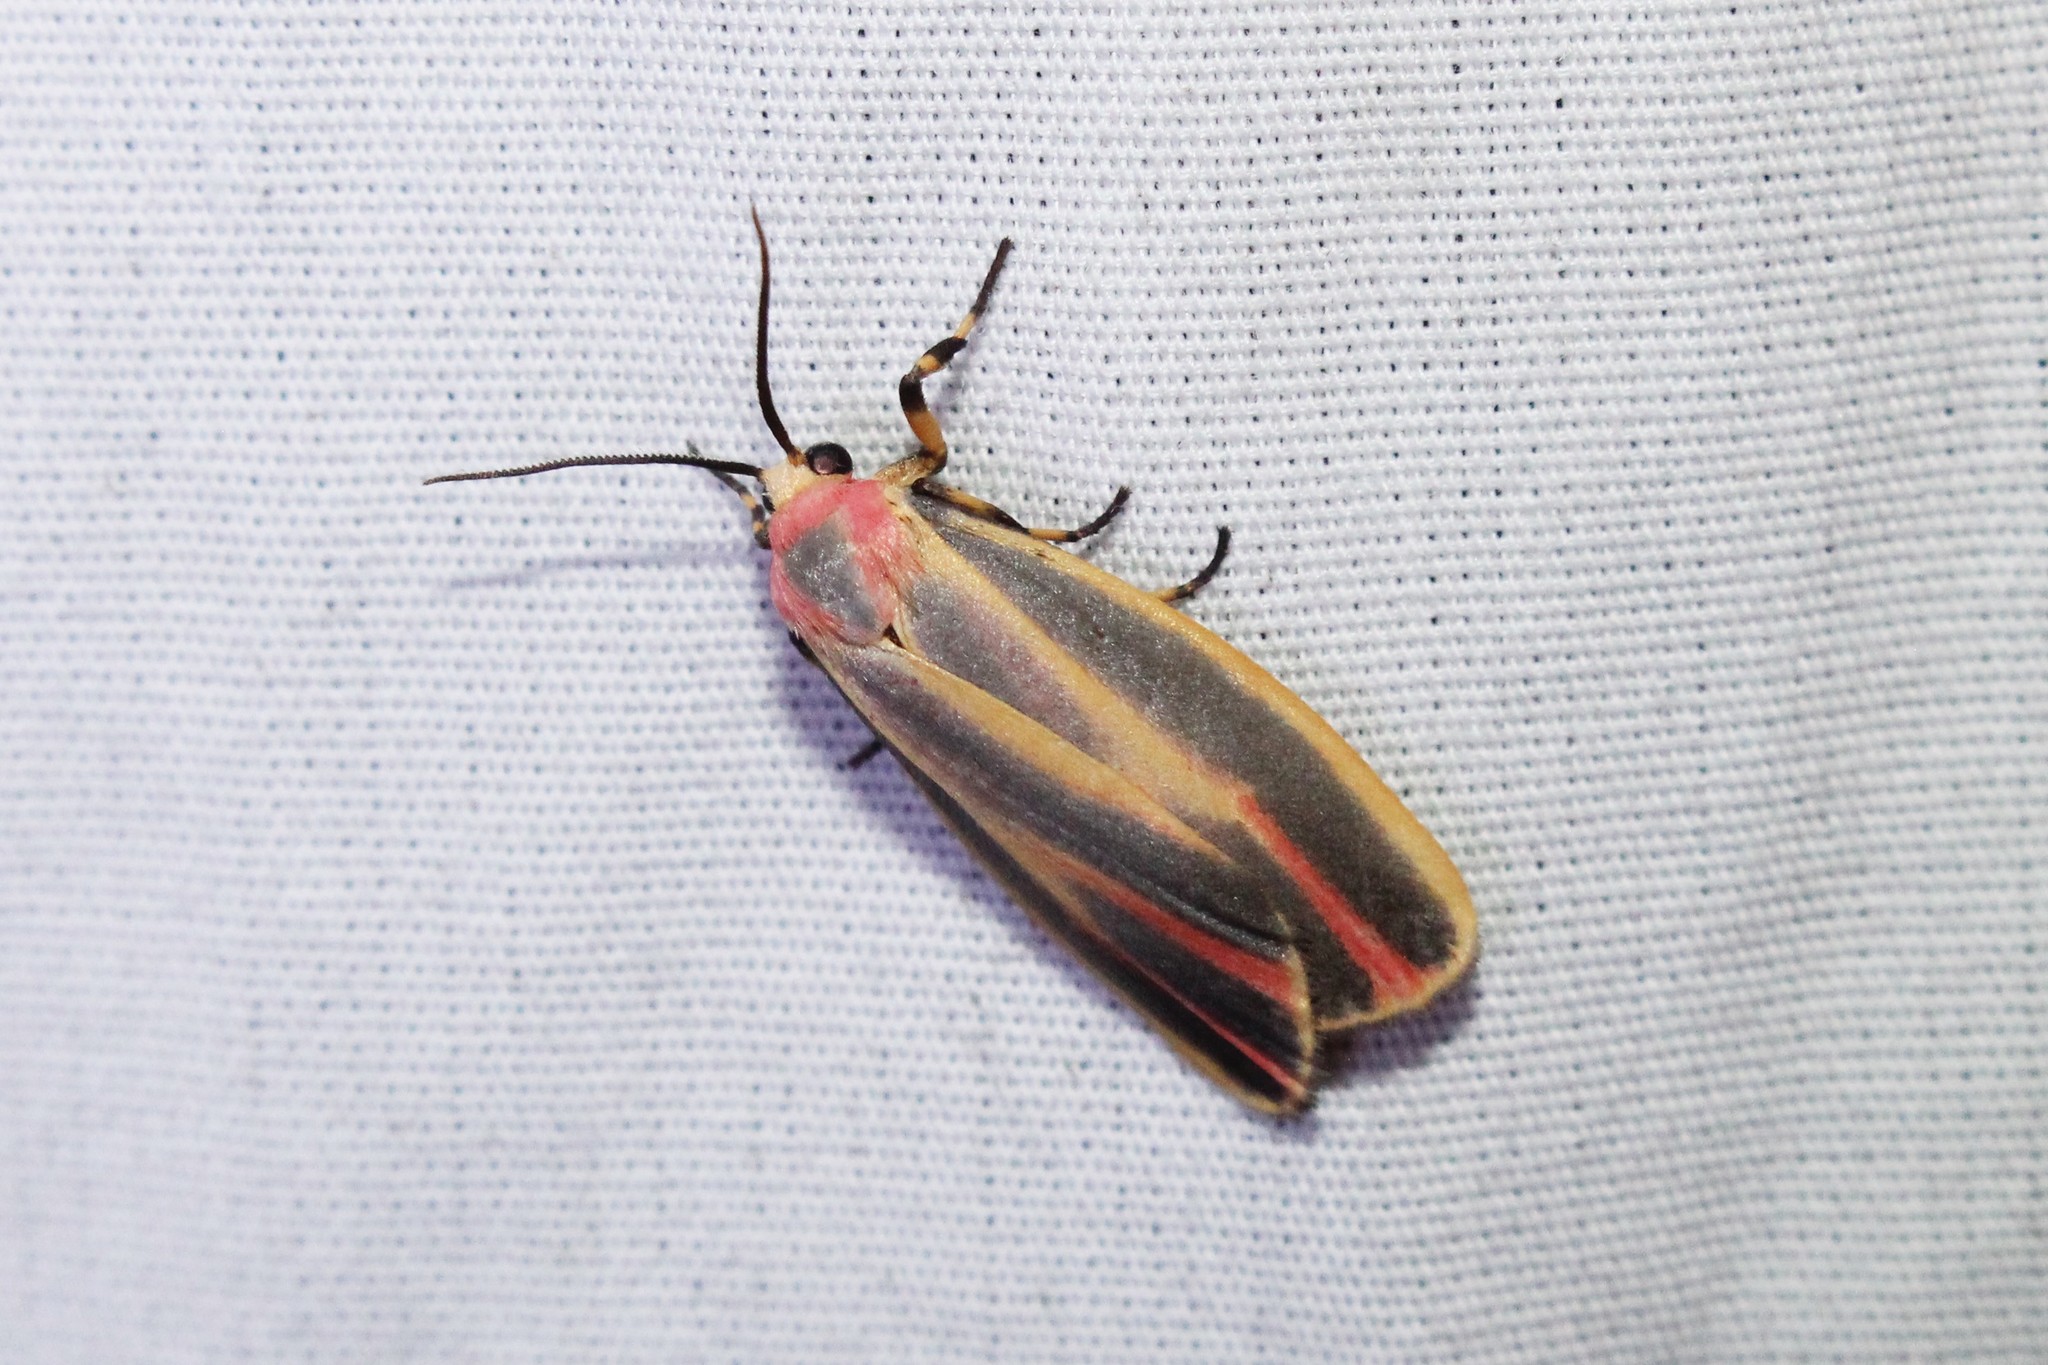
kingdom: Animalia
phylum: Arthropoda
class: Insecta
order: Lepidoptera
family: Erebidae
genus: Hypoprepia
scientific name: Hypoprepia fucosa
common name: Painted lichen moth
